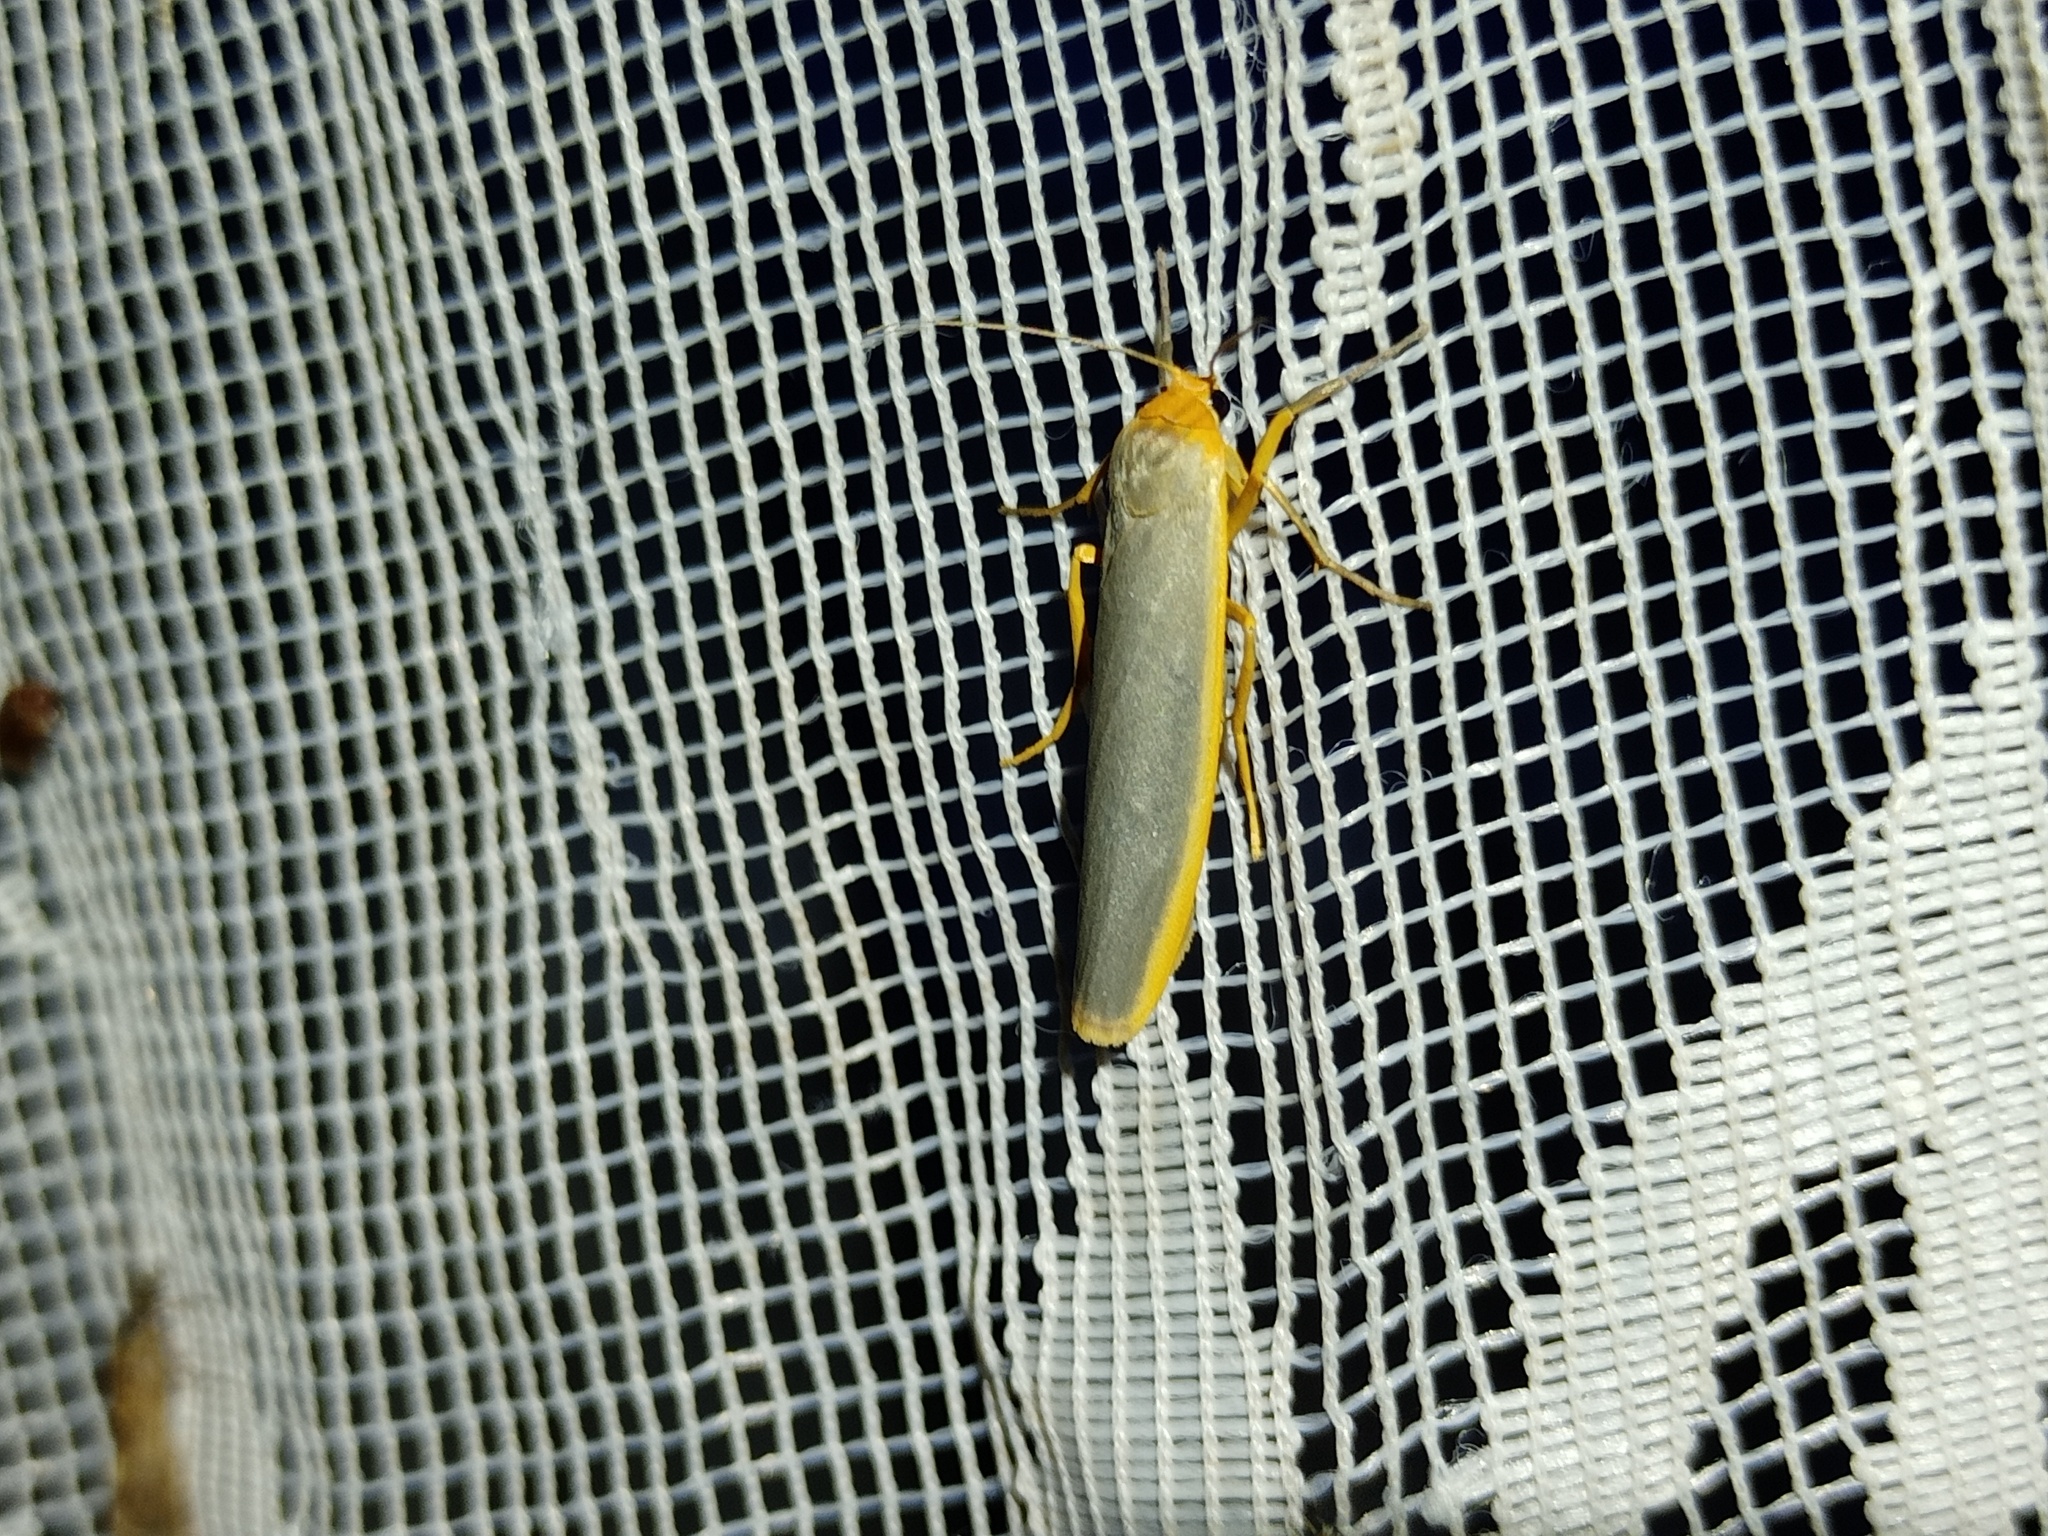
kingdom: Animalia
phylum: Arthropoda
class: Insecta
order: Lepidoptera
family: Erebidae
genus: Manulea
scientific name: Manulea complana
